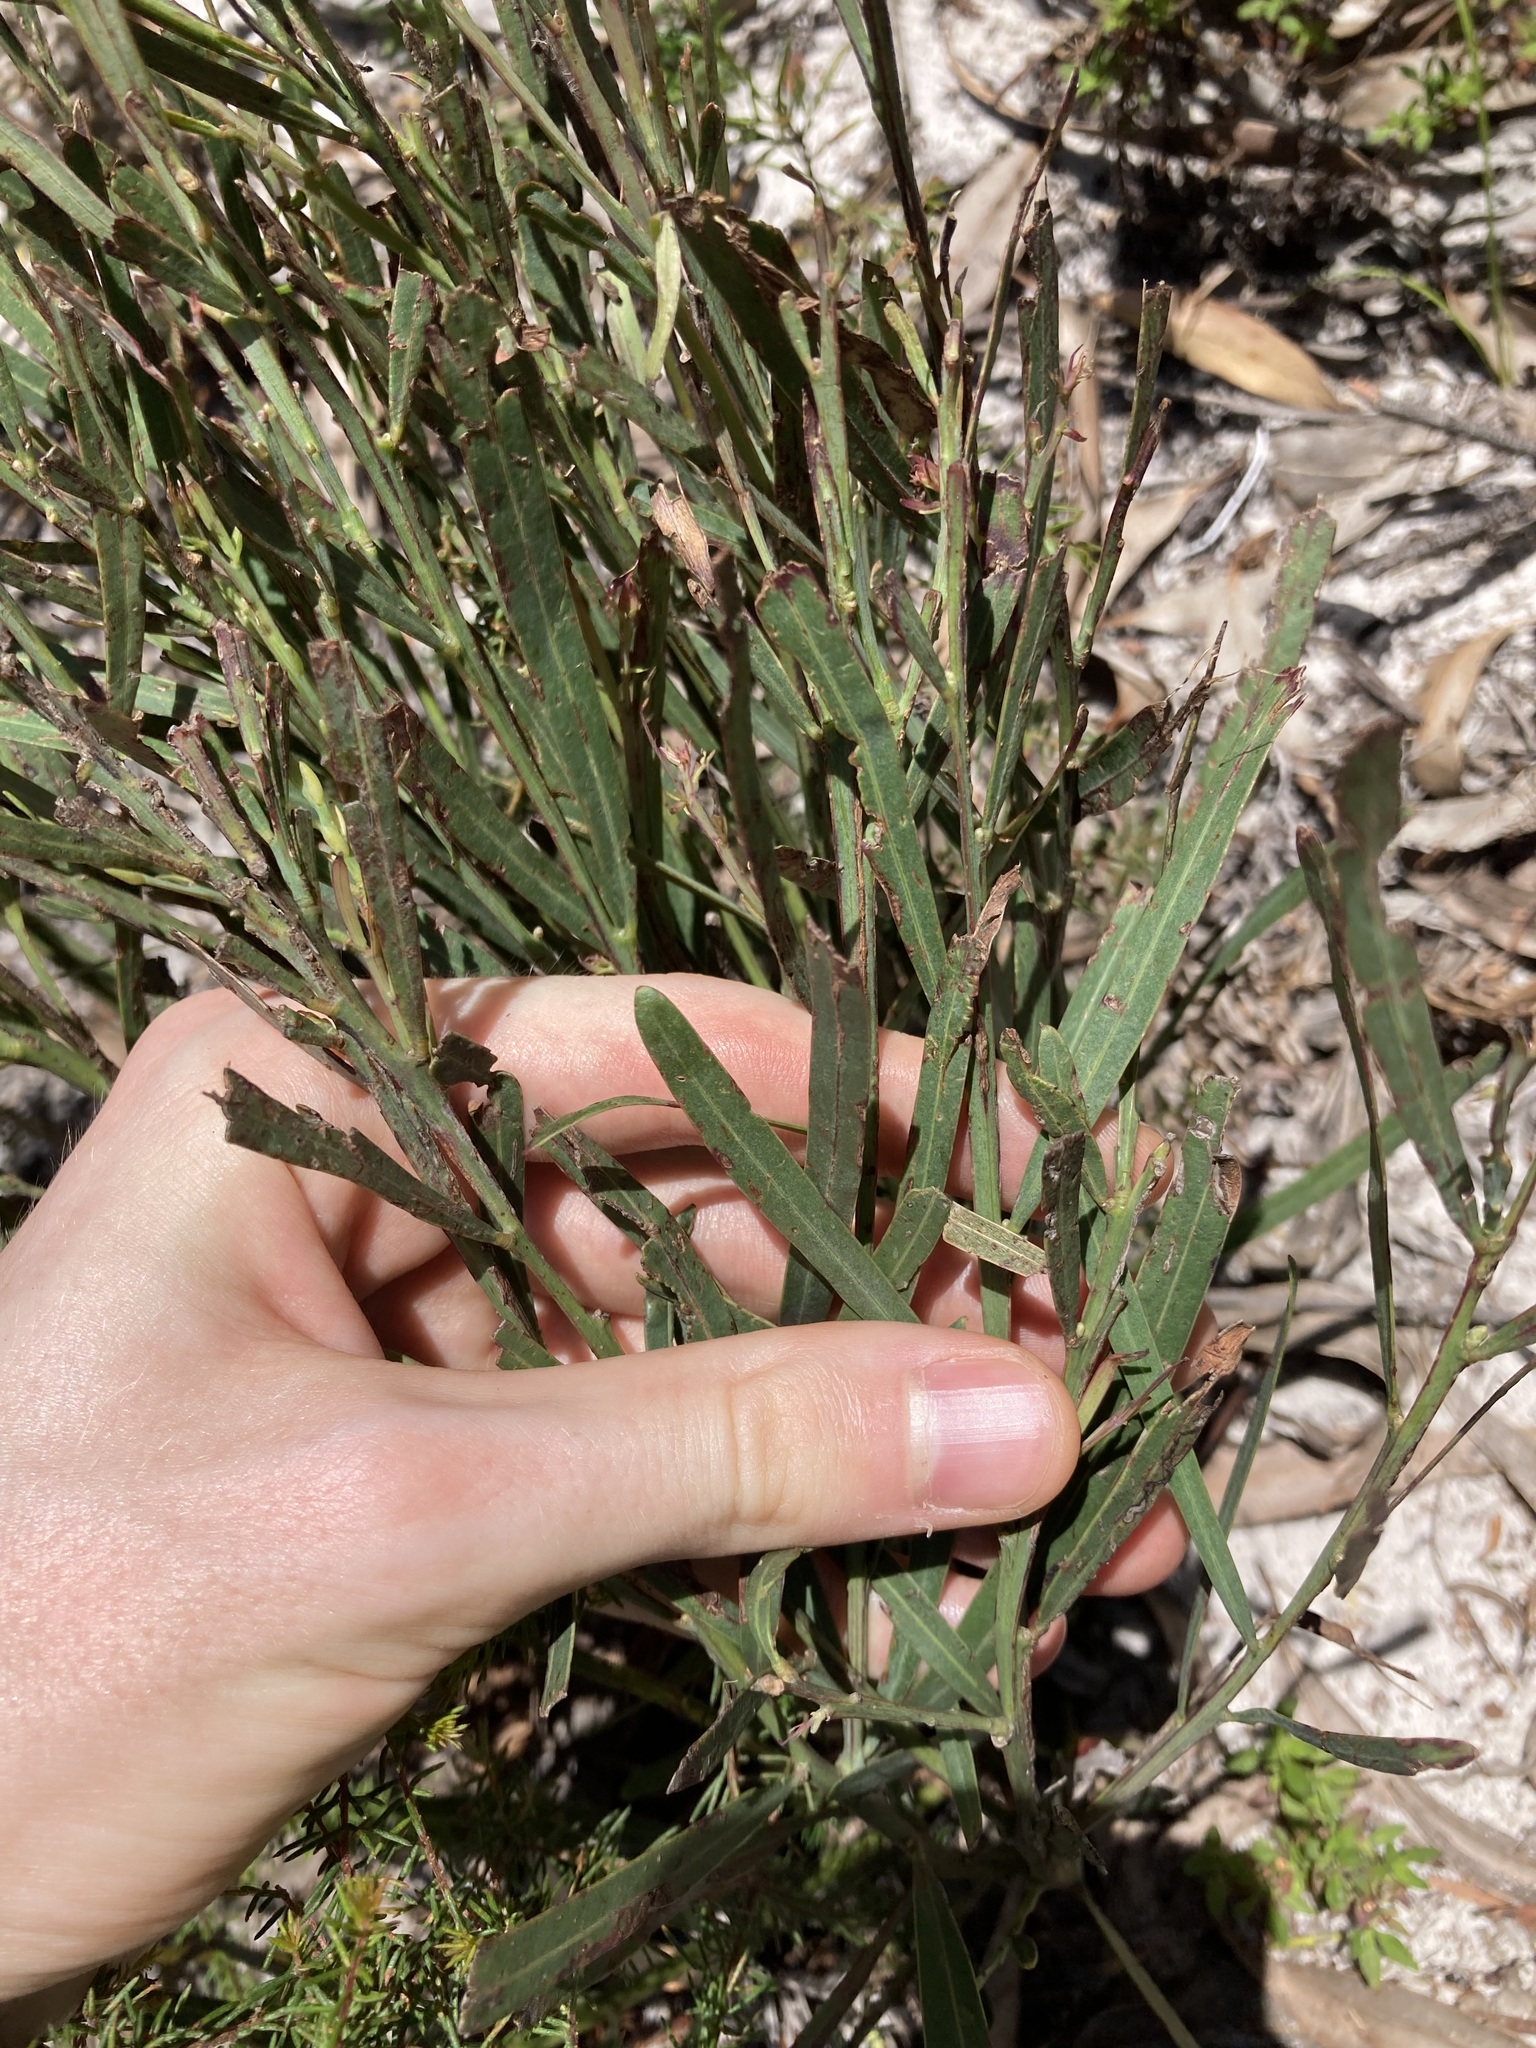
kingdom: Plantae
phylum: Tracheophyta
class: Magnoliopsida
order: Fabales
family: Fabaceae
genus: Bossiaea
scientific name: Bossiaea ensata
